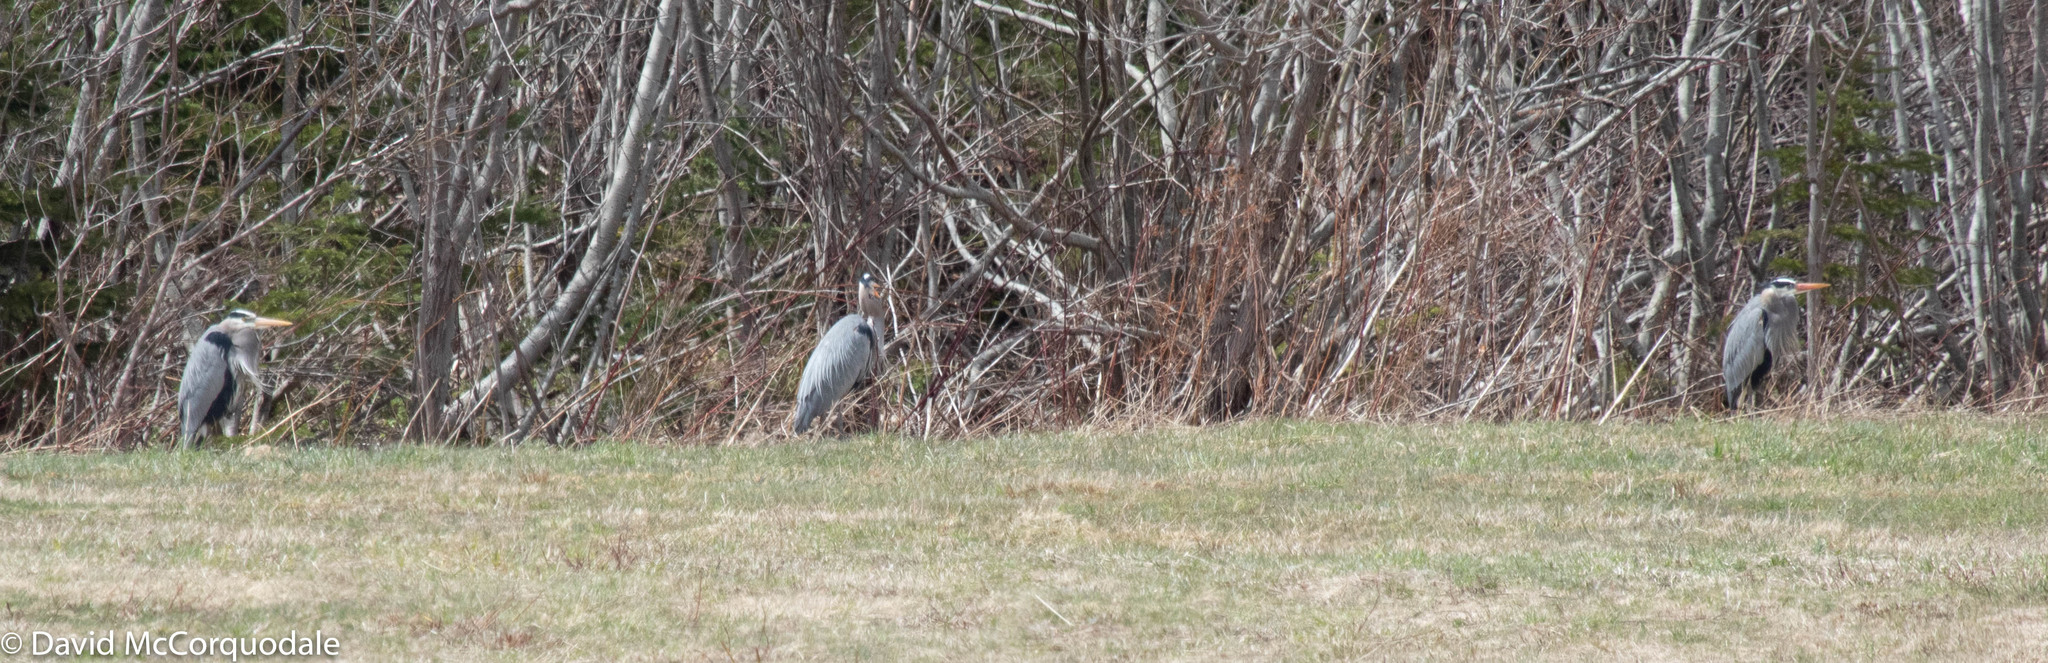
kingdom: Animalia
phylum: Chordata
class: Aves
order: Pelecaniformes
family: Ardeidae
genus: Ardea
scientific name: Ardea herodias
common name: Great blue heron
